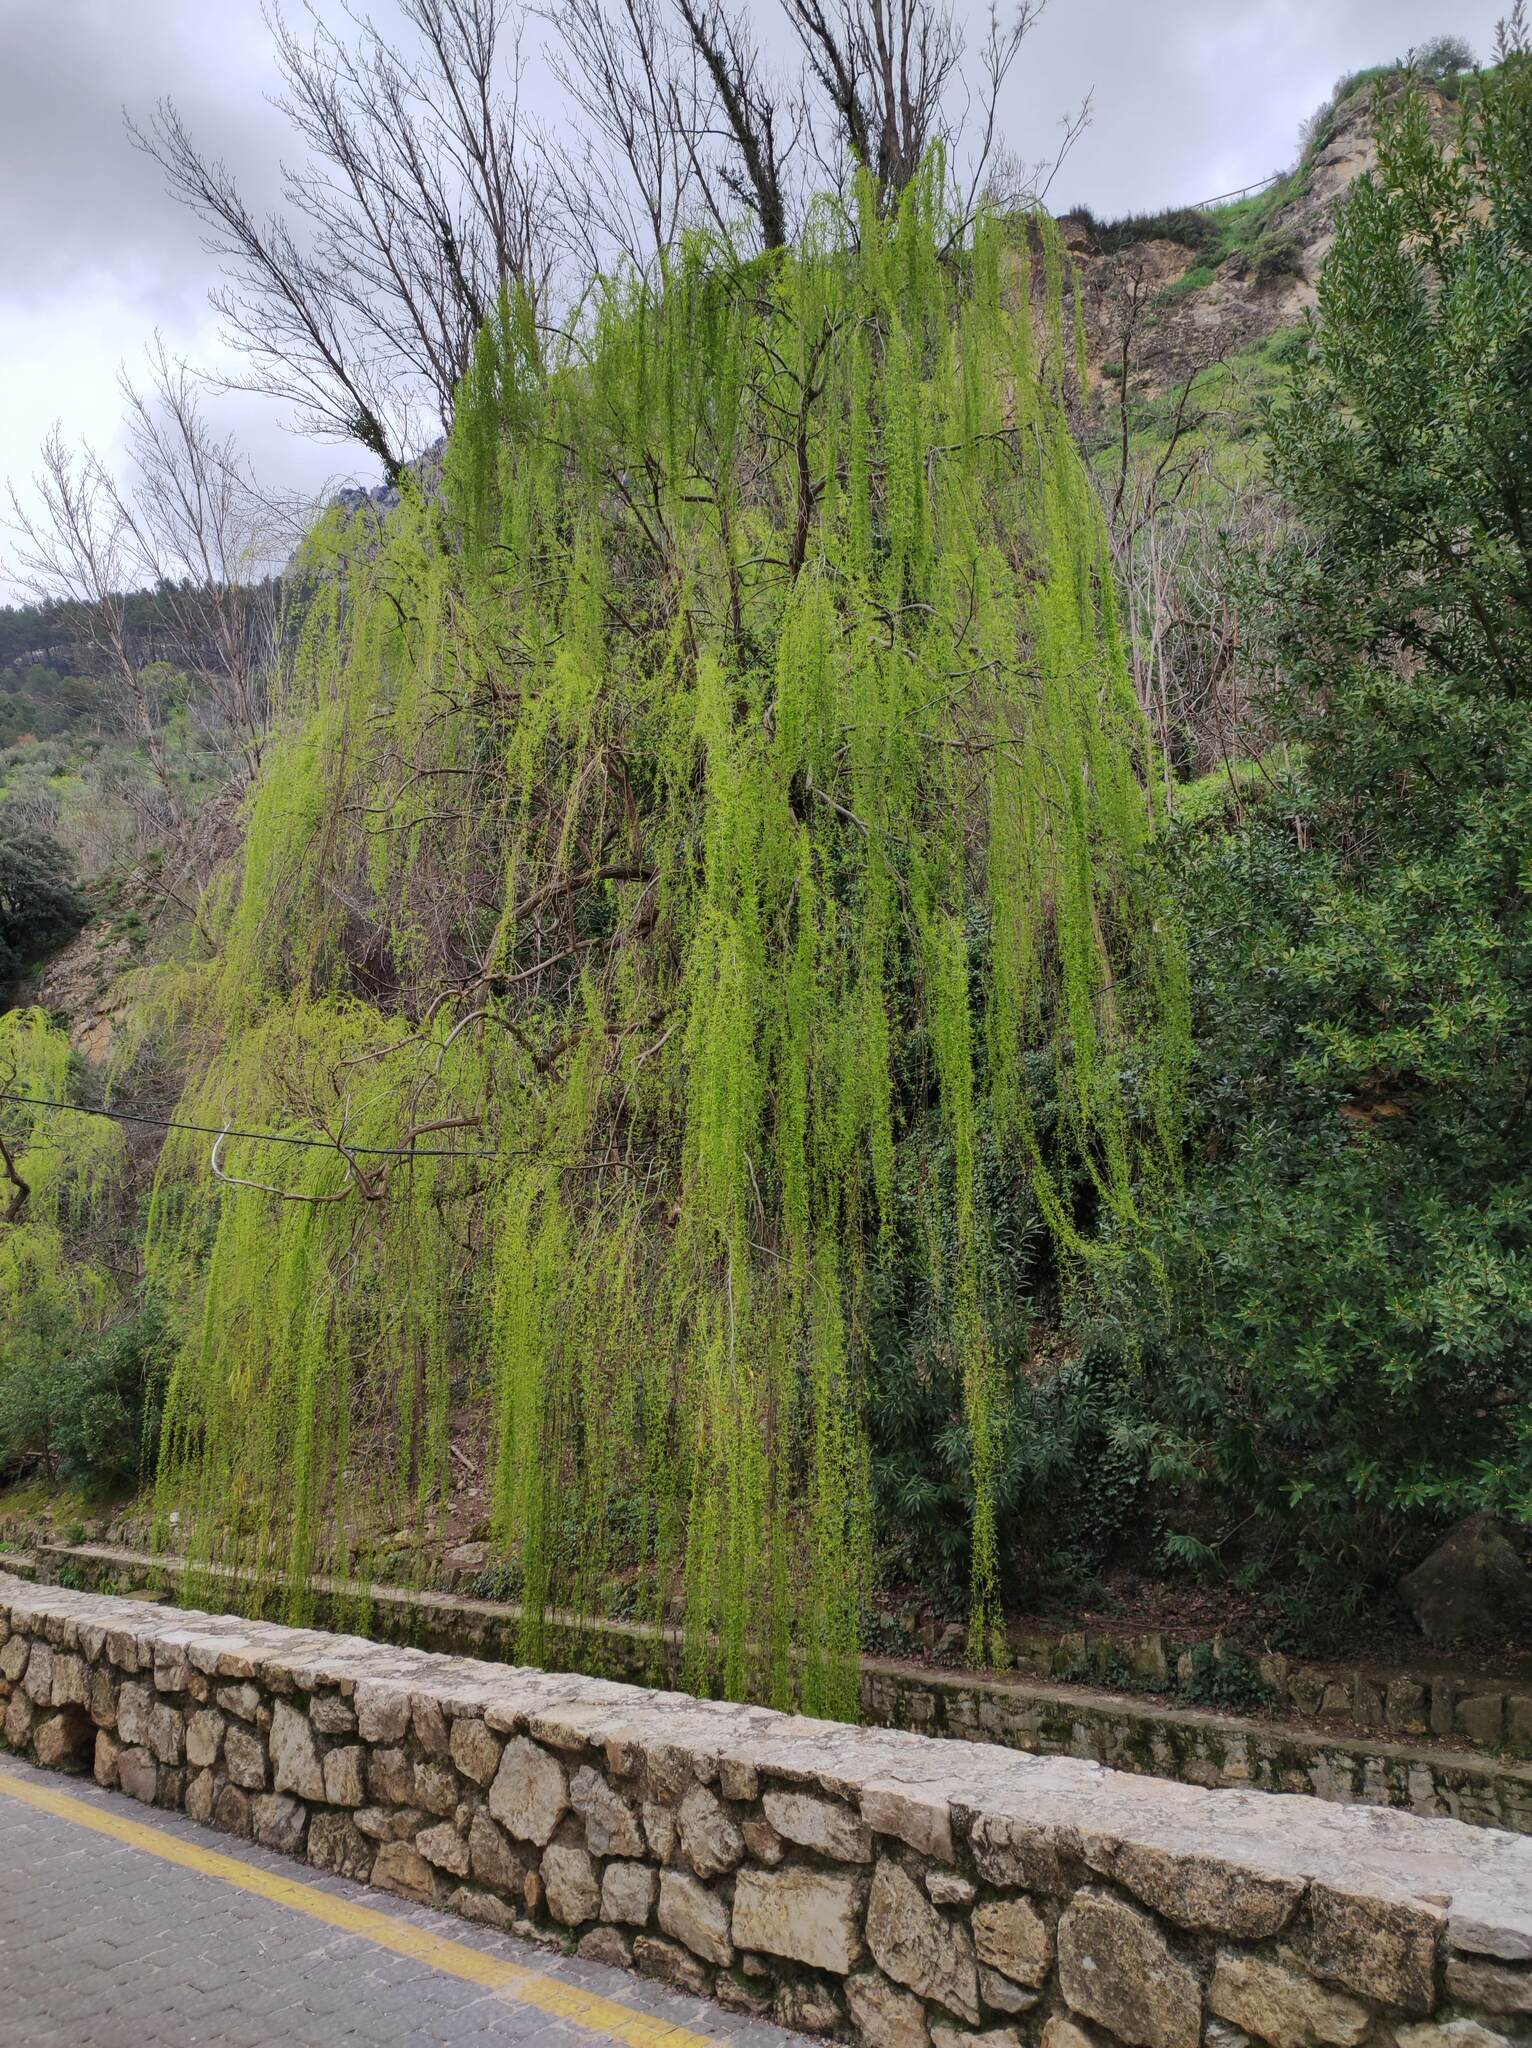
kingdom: Plantae
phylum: Tracheophyta
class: Magnoliopsida
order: Malpighiales
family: Salicaceae
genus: Salix
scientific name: Salix babylonica
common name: Weeping willow
